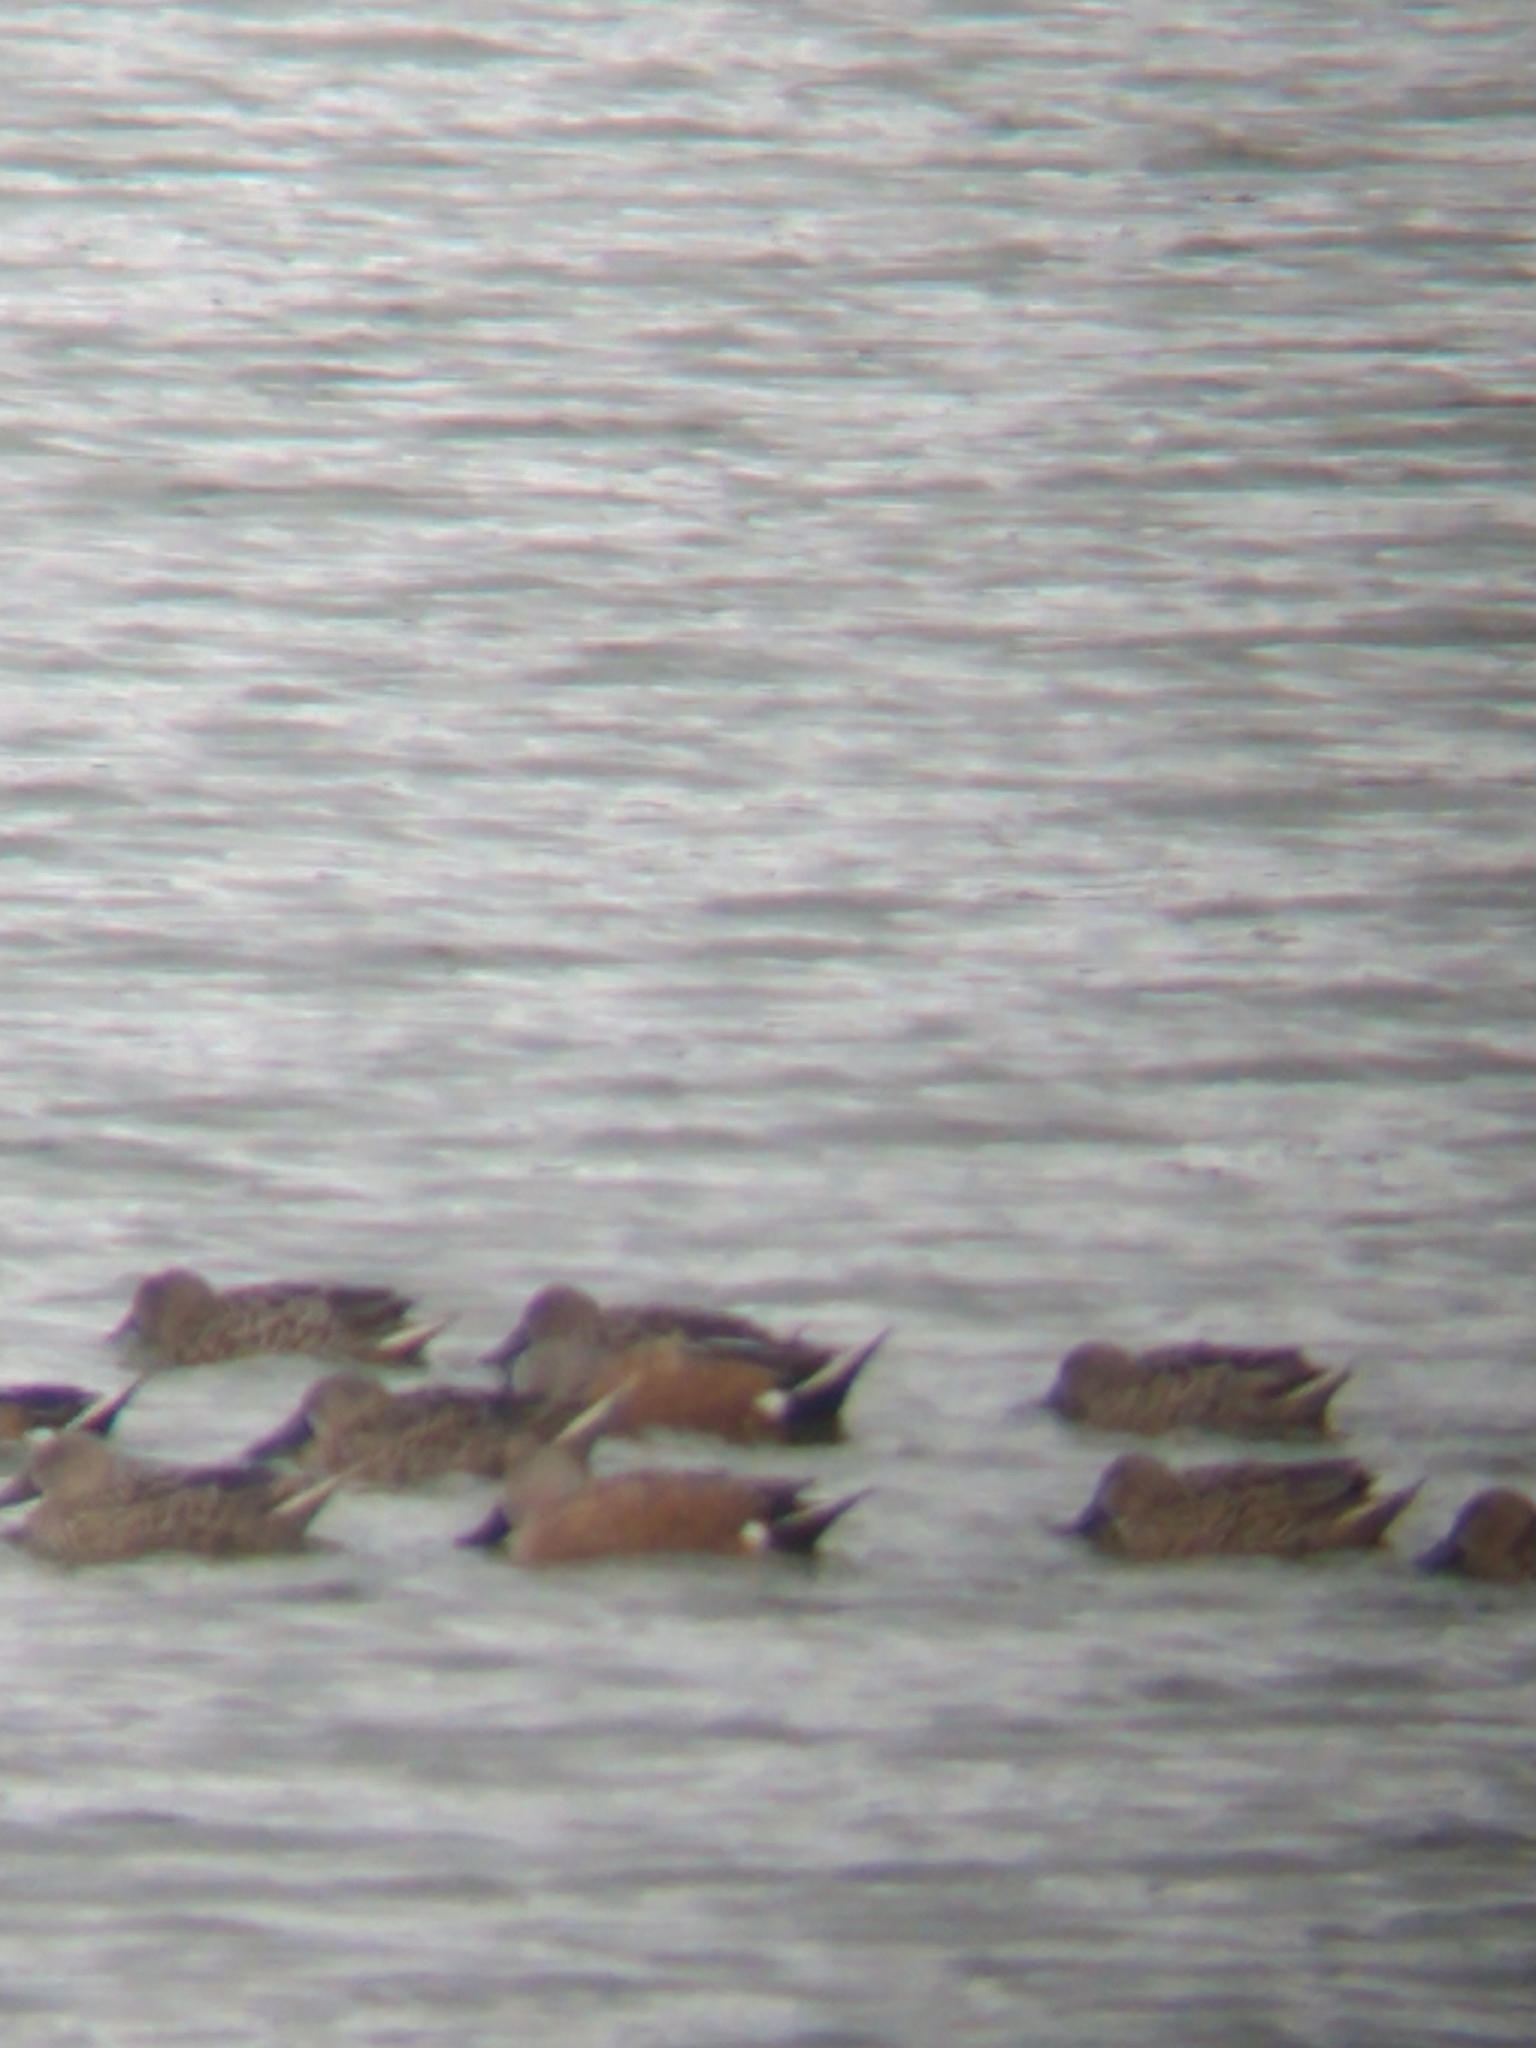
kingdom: Animalia
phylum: Chordata
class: Aves
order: Anseriformes
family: Anatidae
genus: Spatula
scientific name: Spatula platalea
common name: Red shoveler
